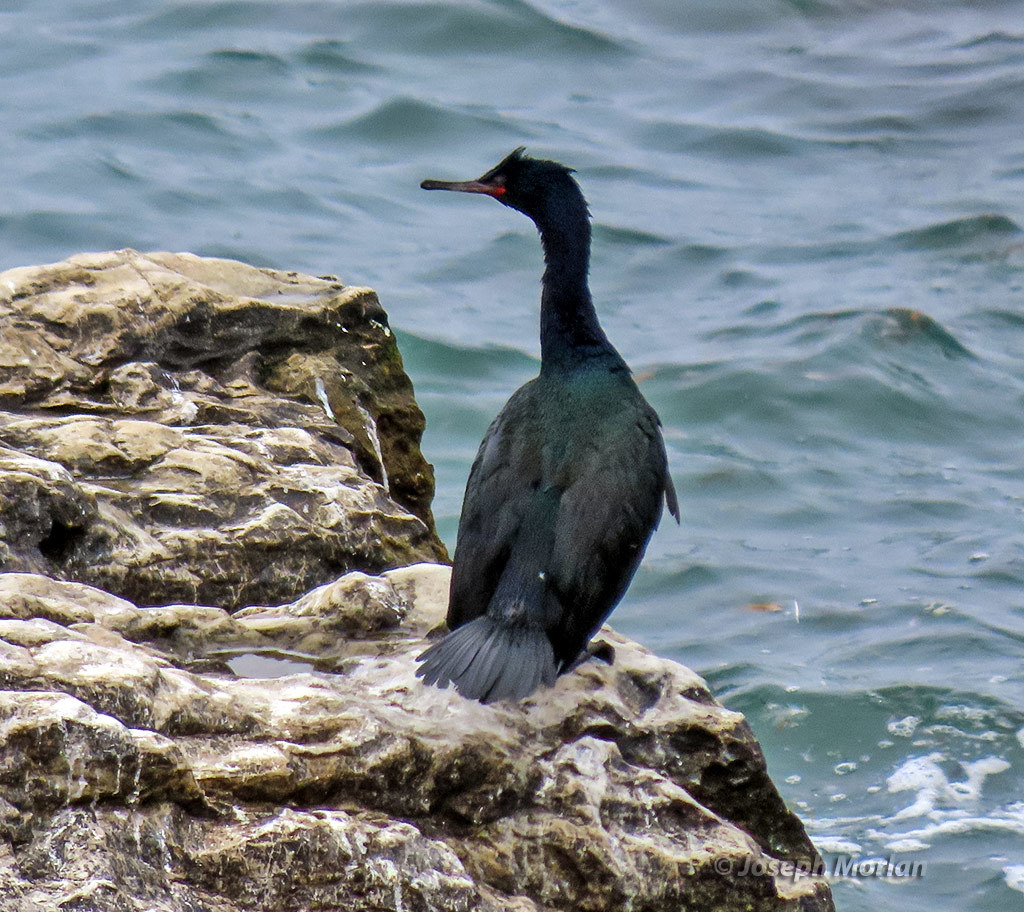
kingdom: Animalia
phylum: Chordata
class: Aves
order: Suliformes
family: Phalacrocoracidae
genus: Phalacrocorax
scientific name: Phalacrocorax pelagicus
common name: Pelagic cormorant
